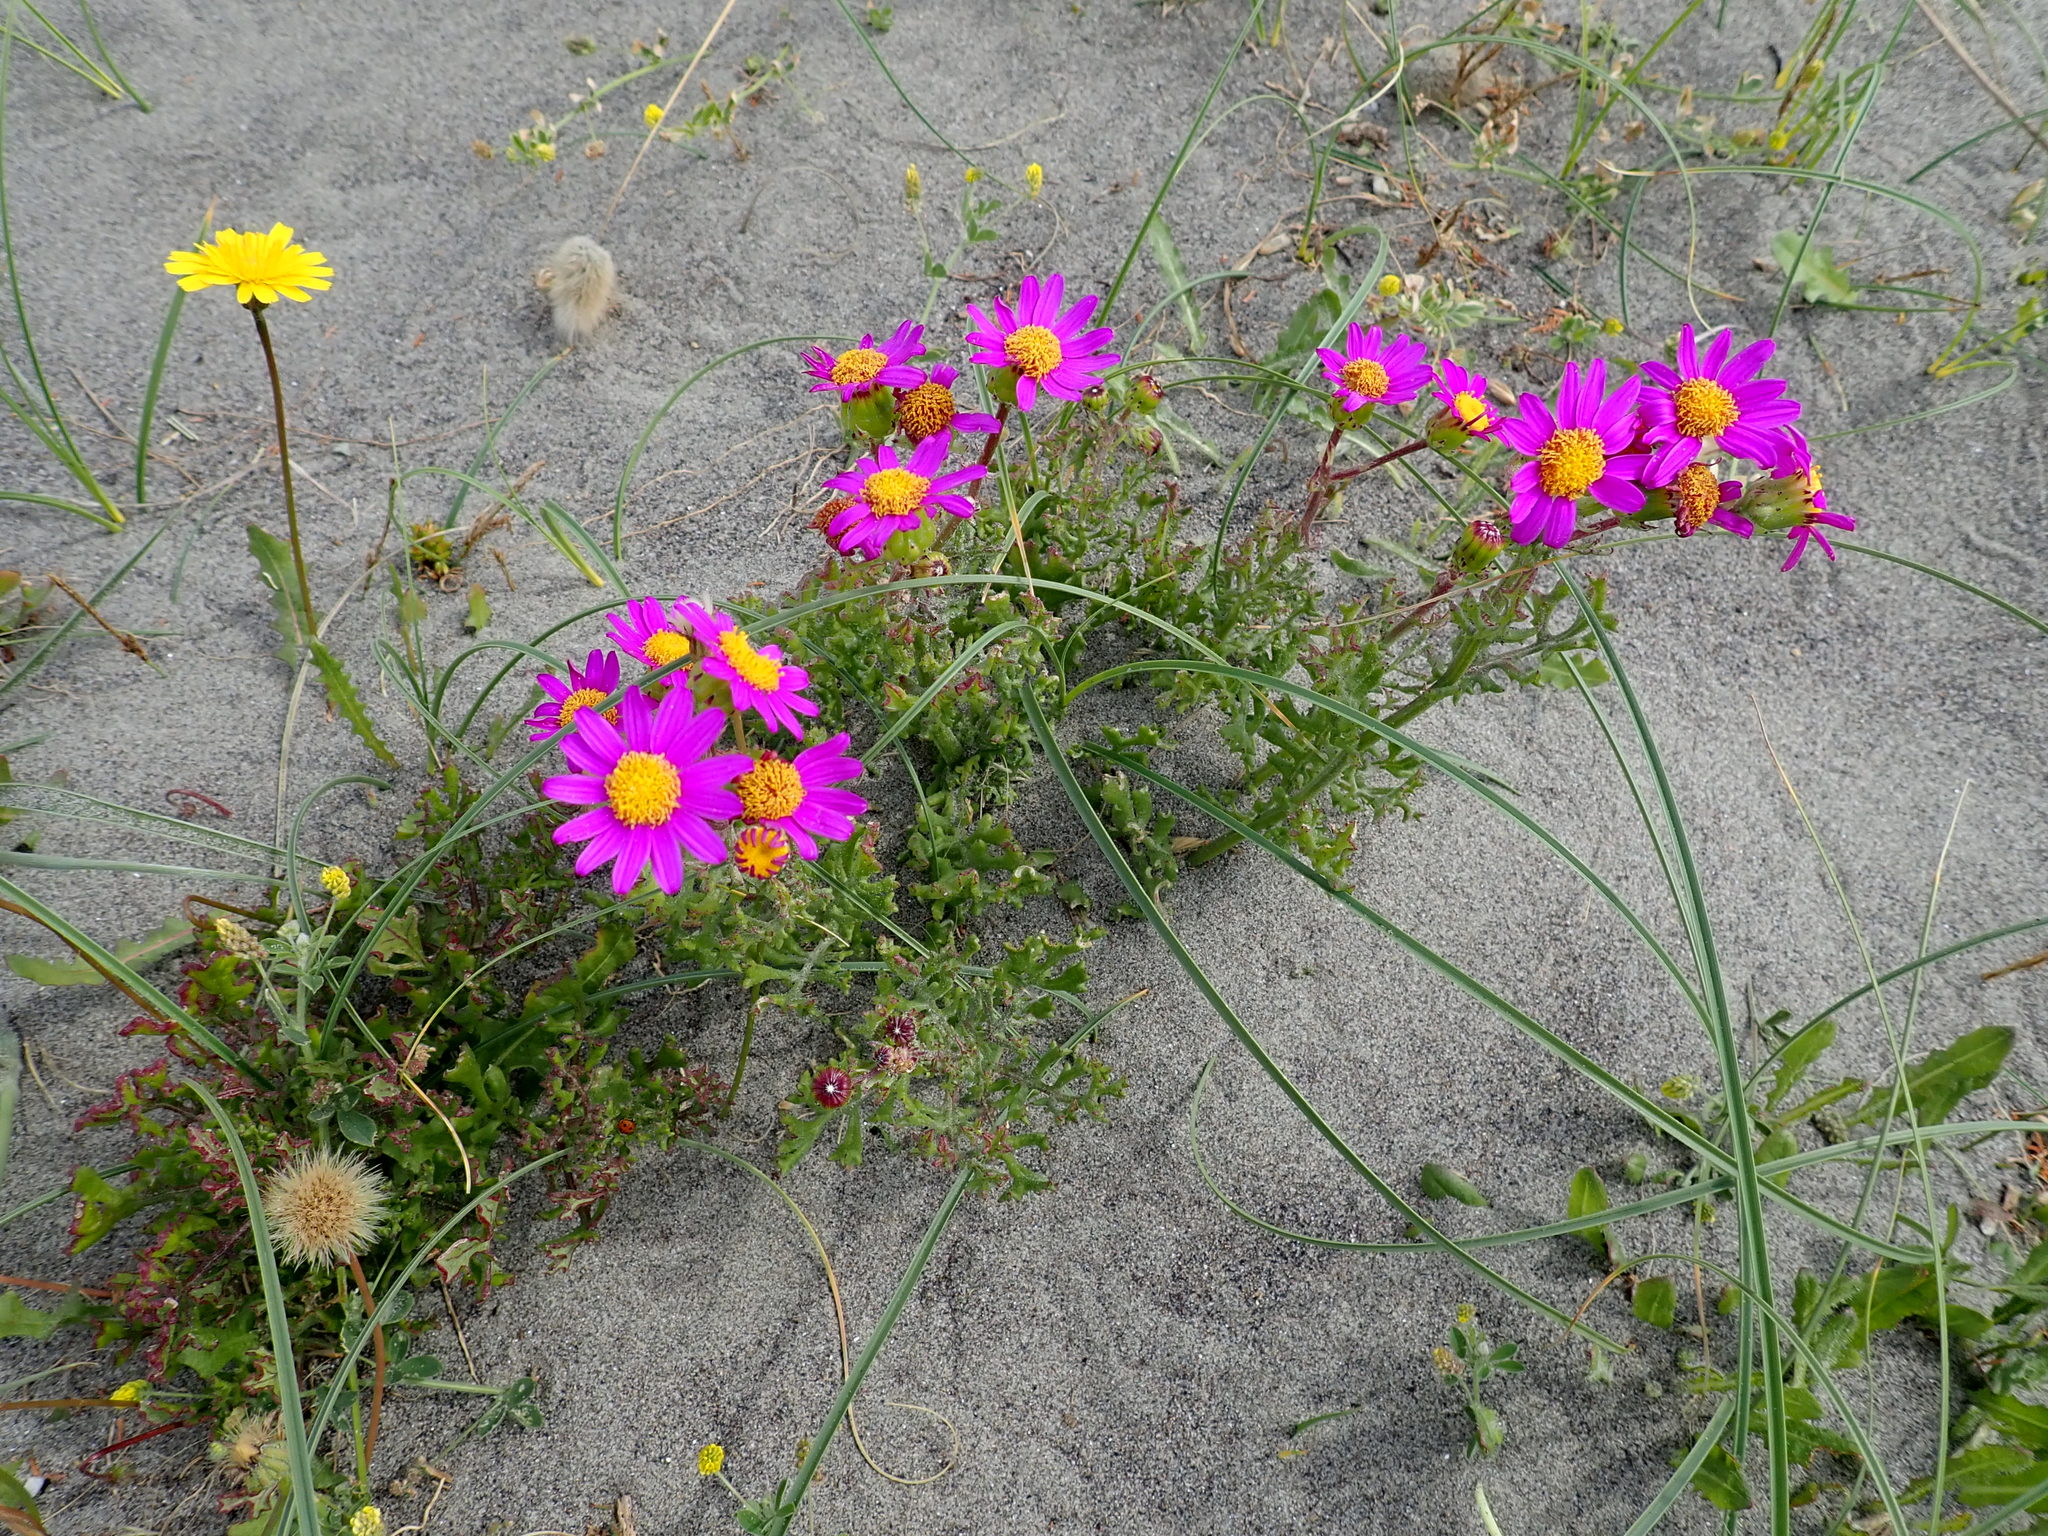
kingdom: Plantae
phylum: Tracheophyta
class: Magnoliopsida
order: Asterales
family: Asteraceae
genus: Senecio
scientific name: Senecio elegans
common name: Purple groundsel
